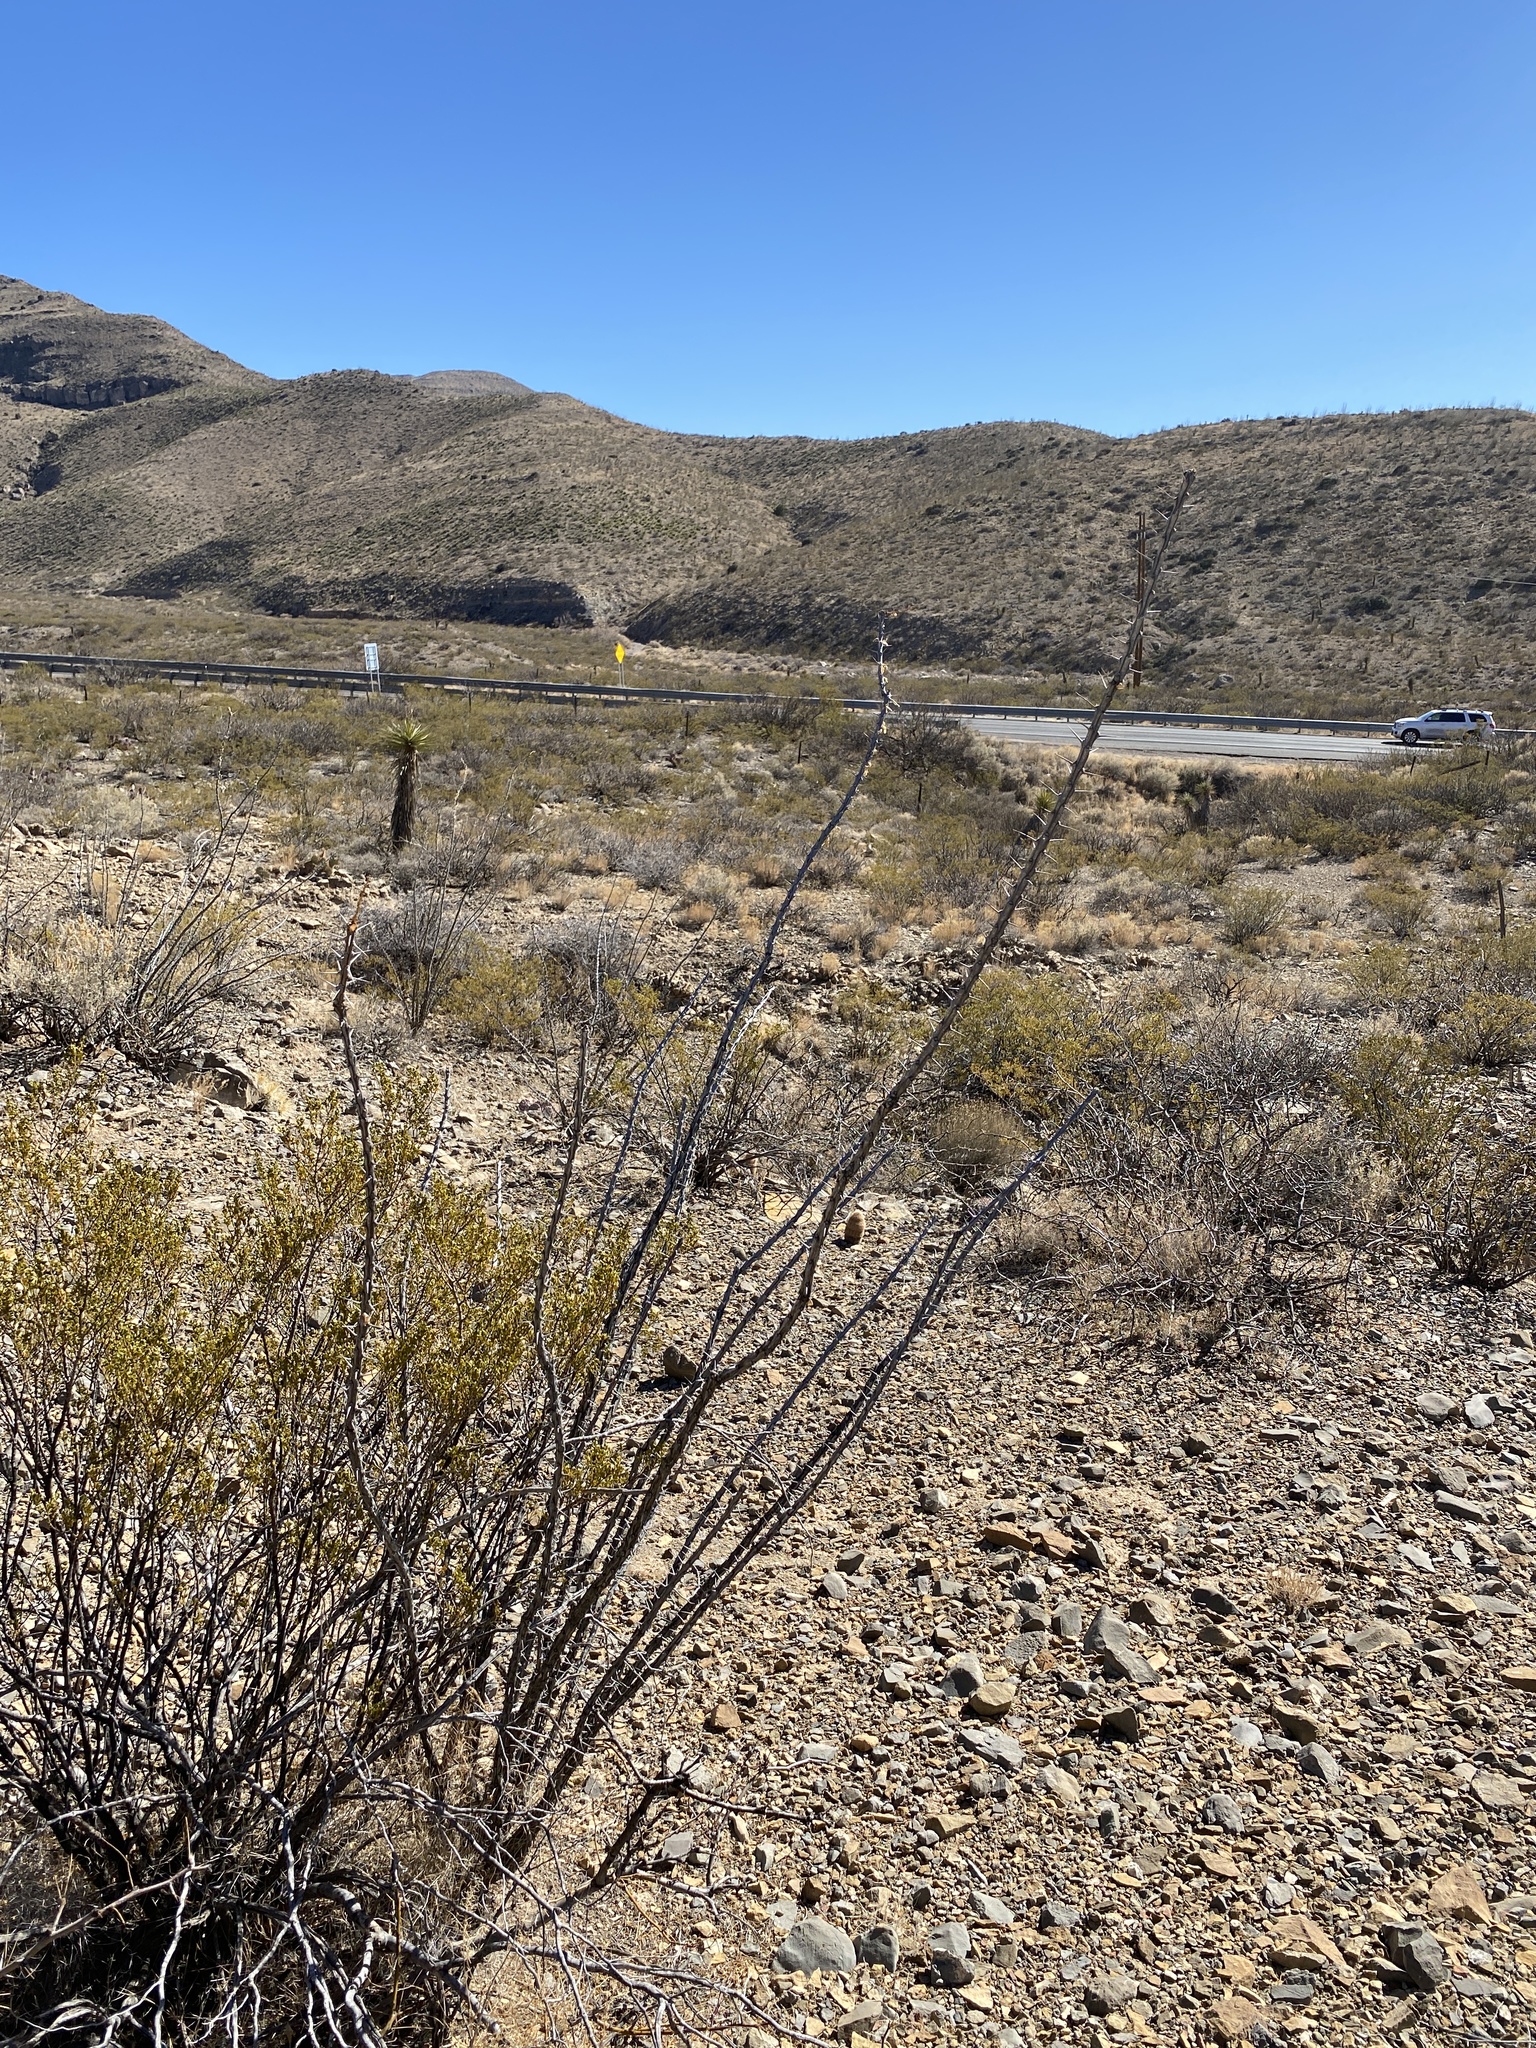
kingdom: Plantae
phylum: Tracheophyta
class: Magnoliopsida
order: Ericales
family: Fouquieriaceae
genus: Fouquieria
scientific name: Fouquieria splendens
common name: Vine-cactus
